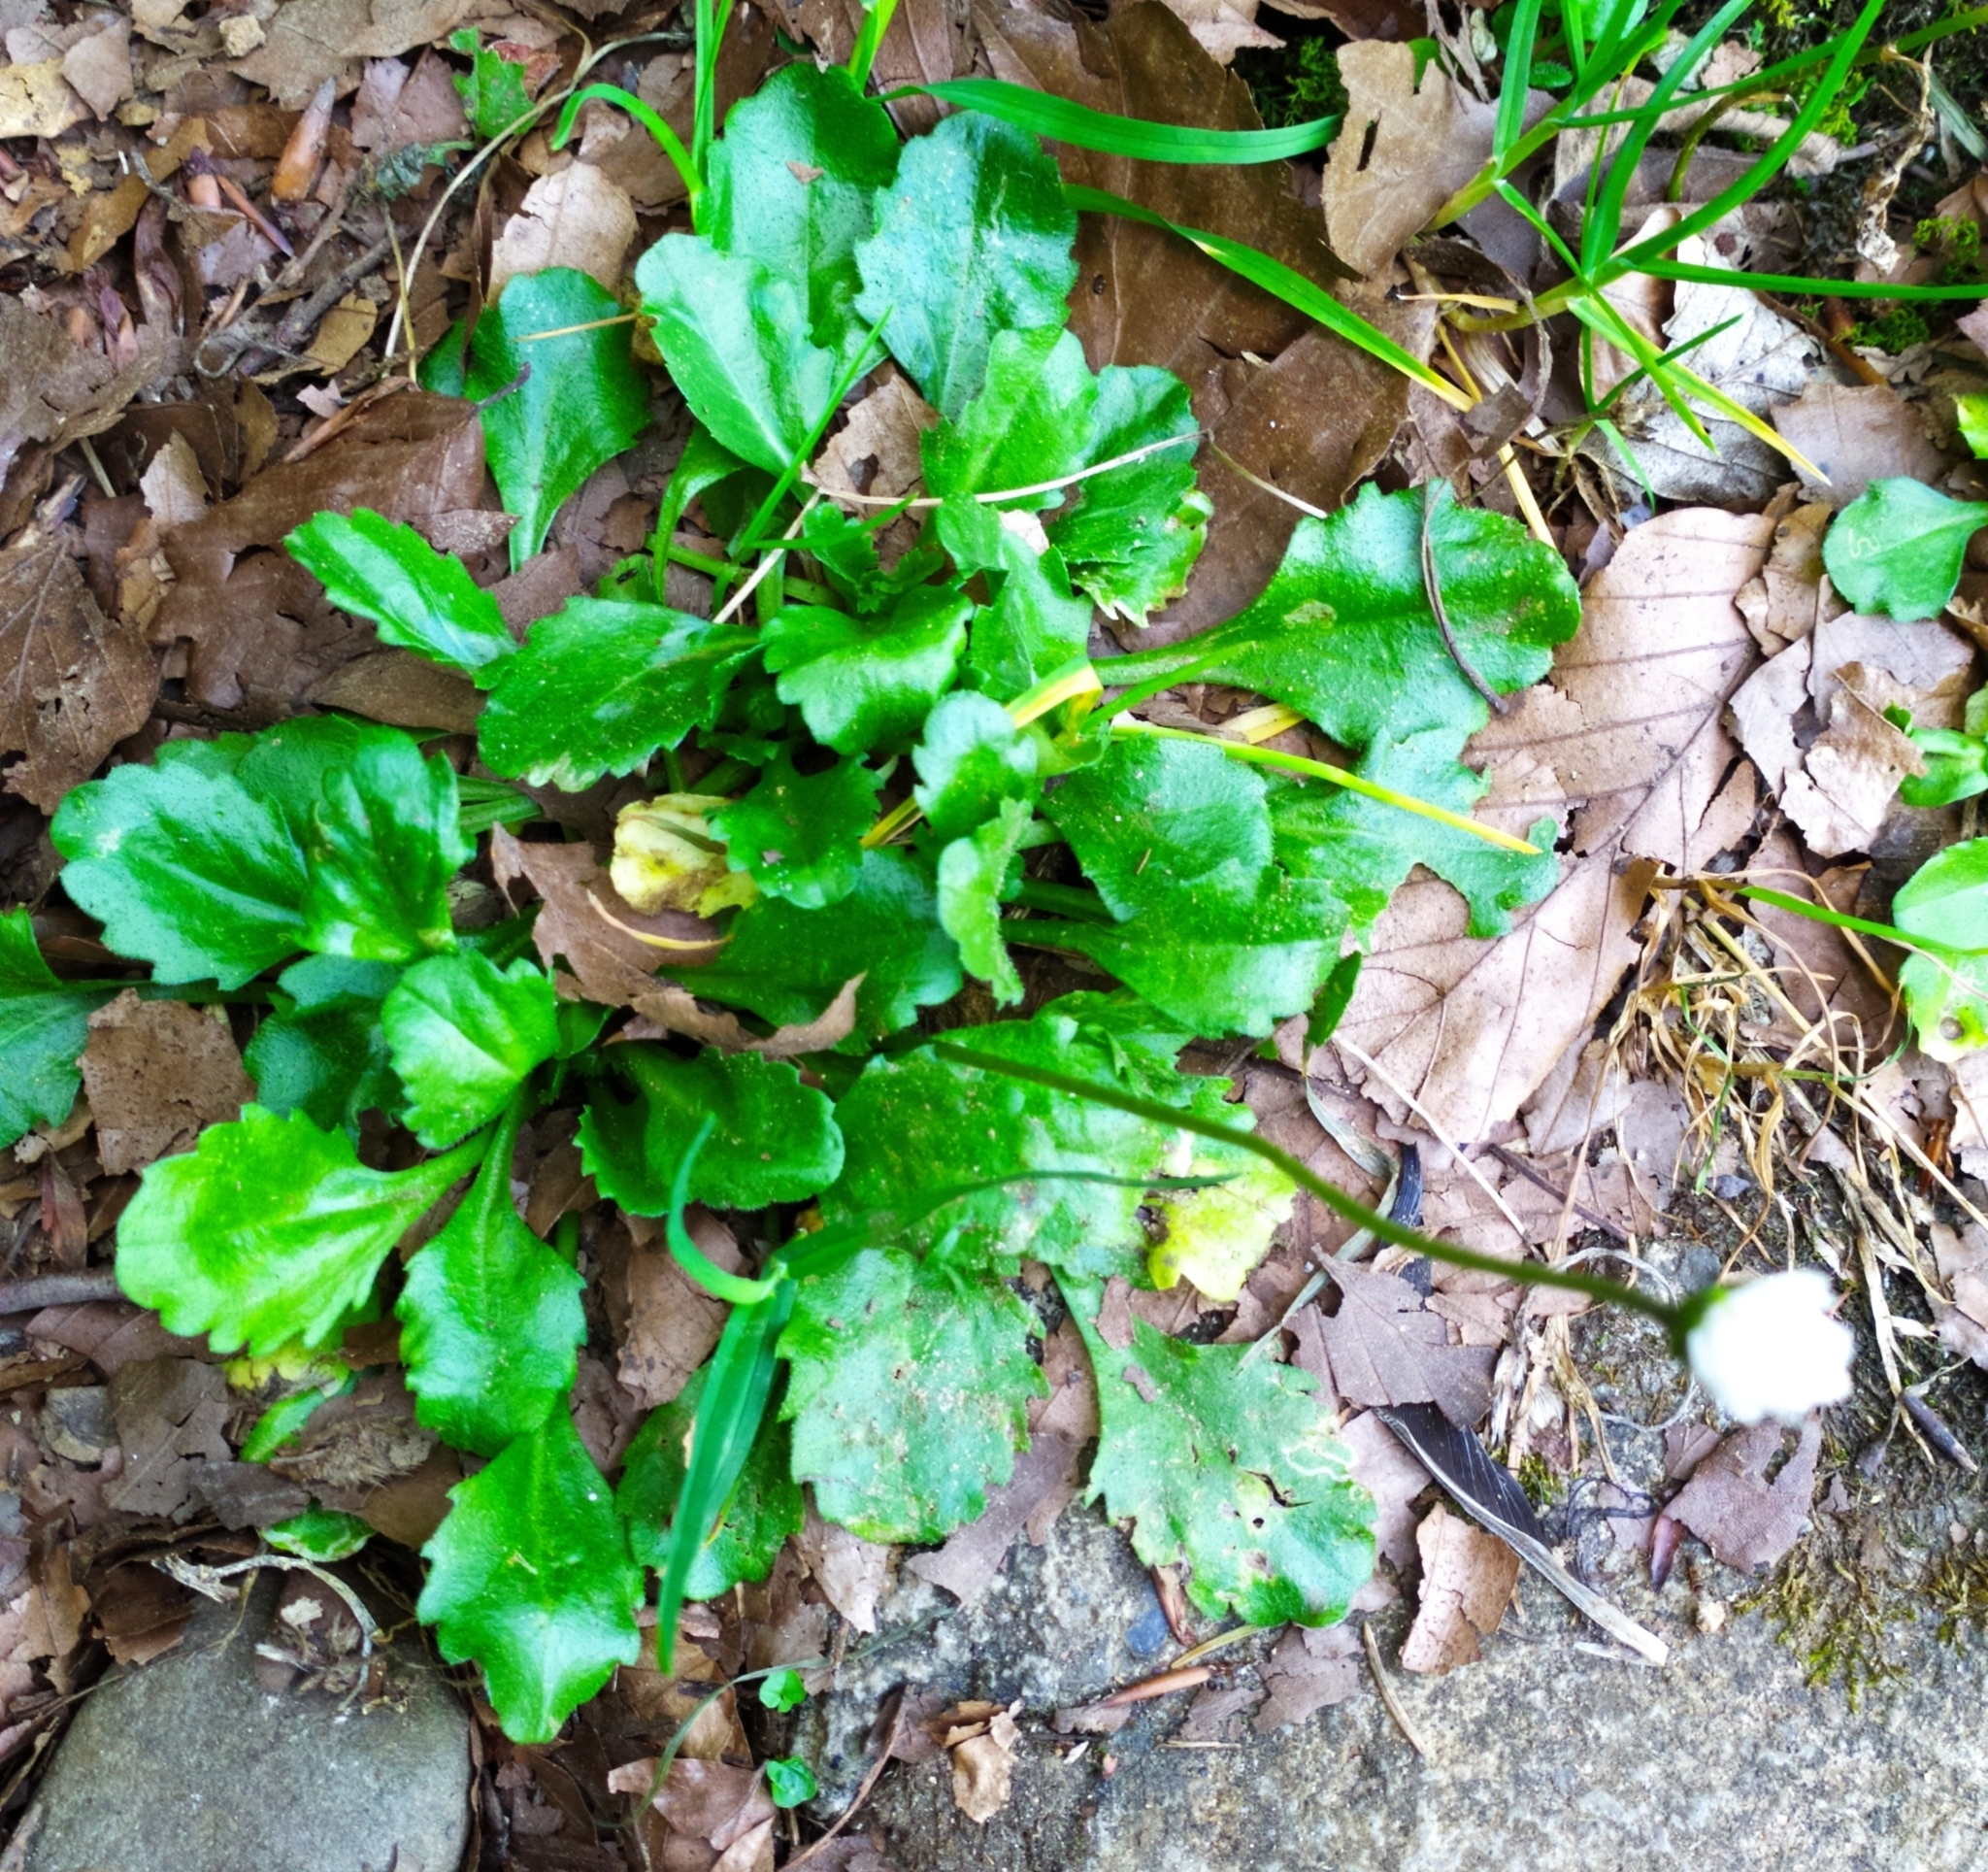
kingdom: Plantae
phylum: Tracheophyta
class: Magnoliopsida
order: Asterales
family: Asteraceae
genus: Bellis
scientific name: Bellis perennis
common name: Lawndaisy
